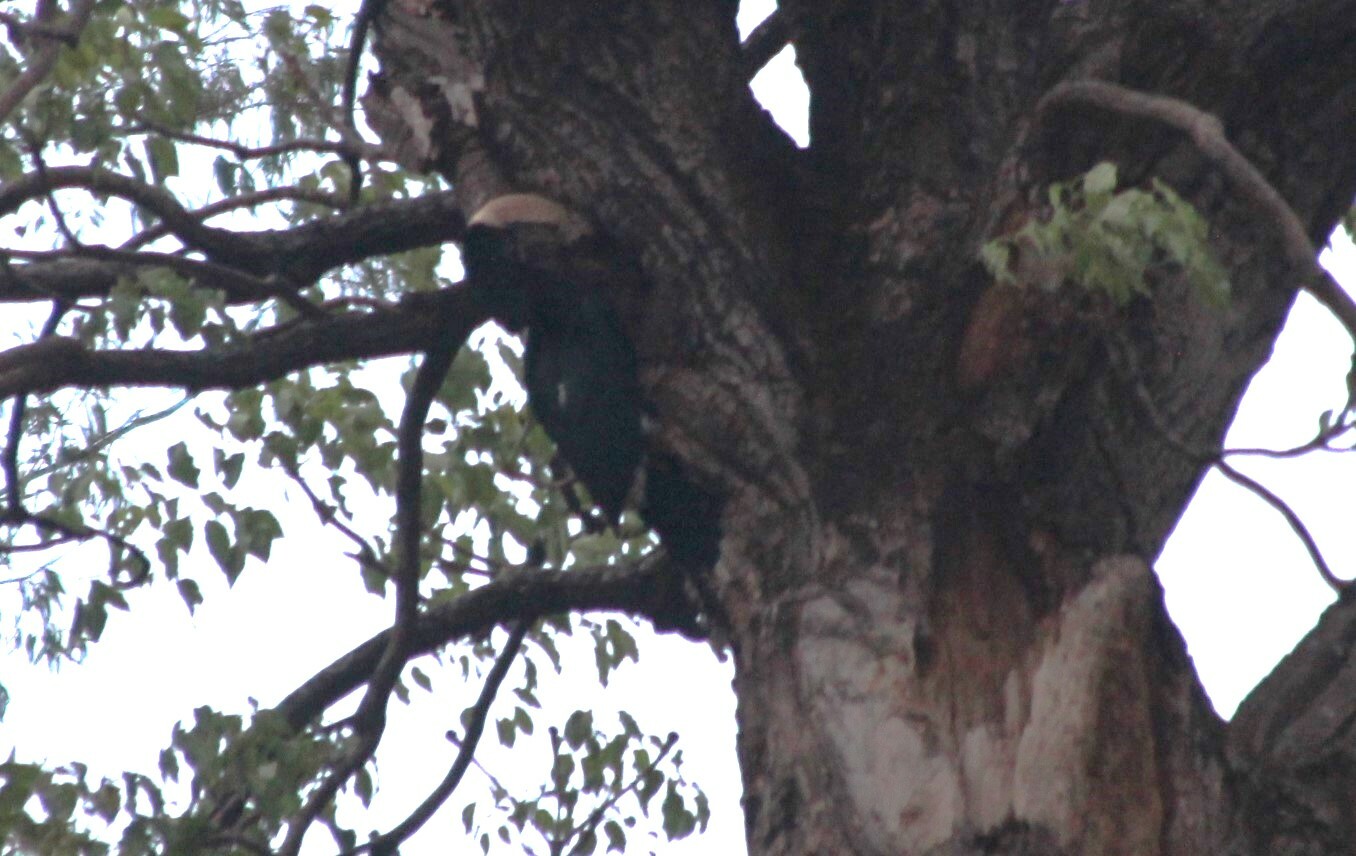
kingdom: Animalia
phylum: Chordata
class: Aves
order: Bucerotiformes
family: Bucerotidae
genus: Bycanistes
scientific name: Bycanistes brevis
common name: Silvery-cheeked hornbill
